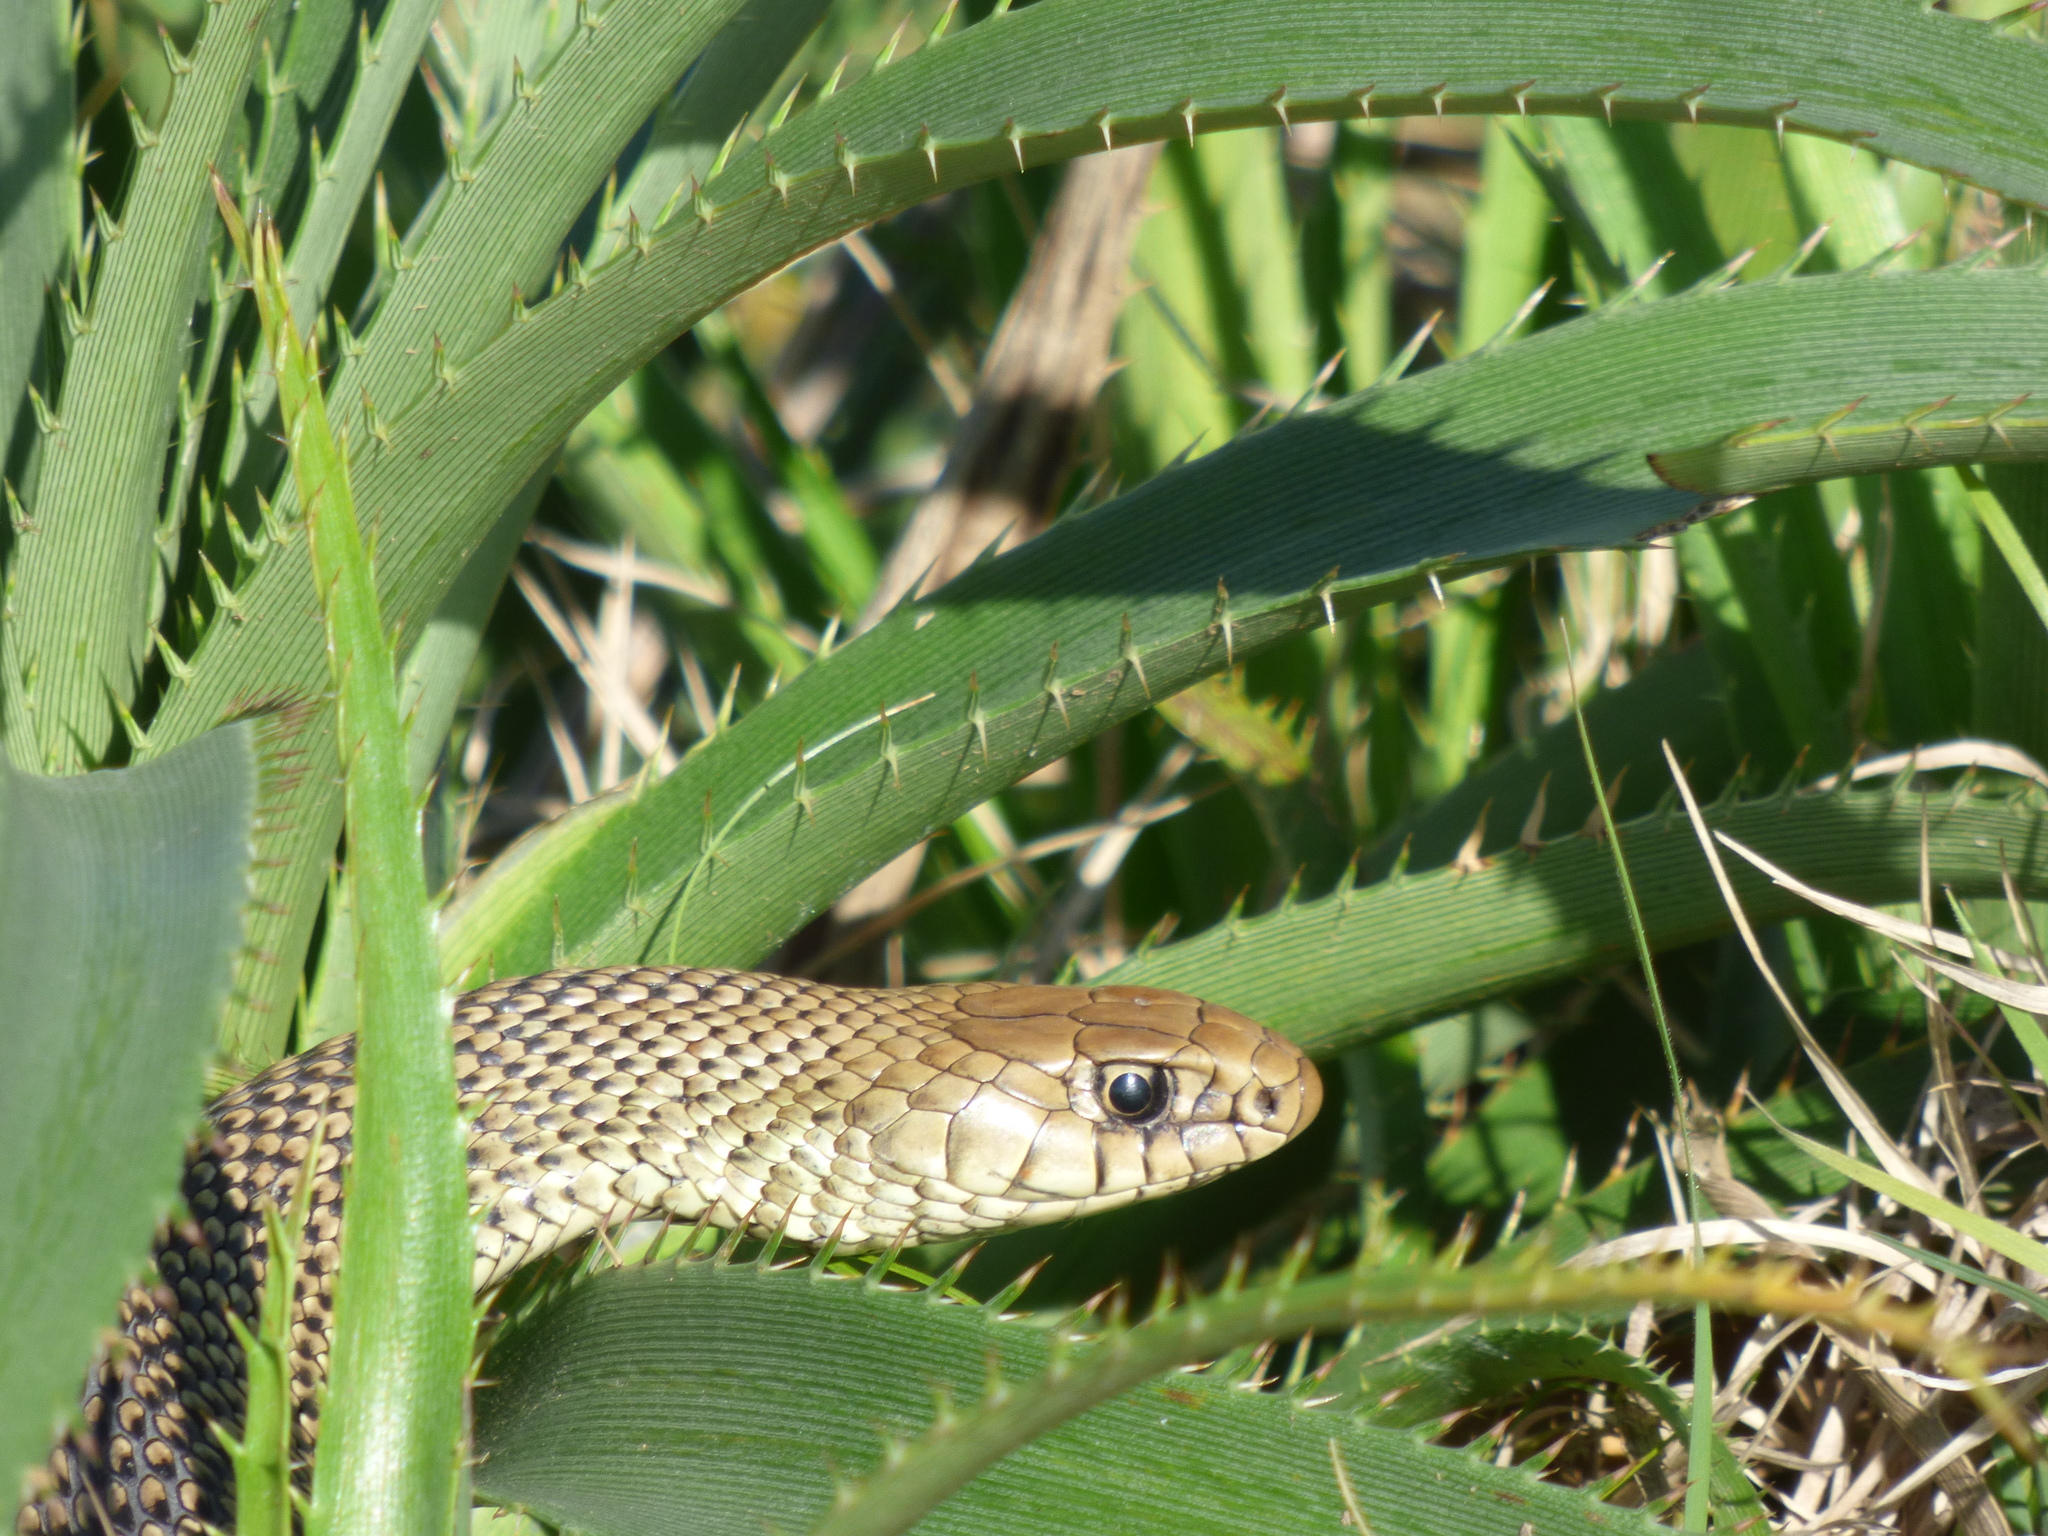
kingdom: Animalia
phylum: Chordata
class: Squamata
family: Colubridae
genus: Philodryas
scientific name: Philodryas patagoniensis
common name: Patagonia green racer
